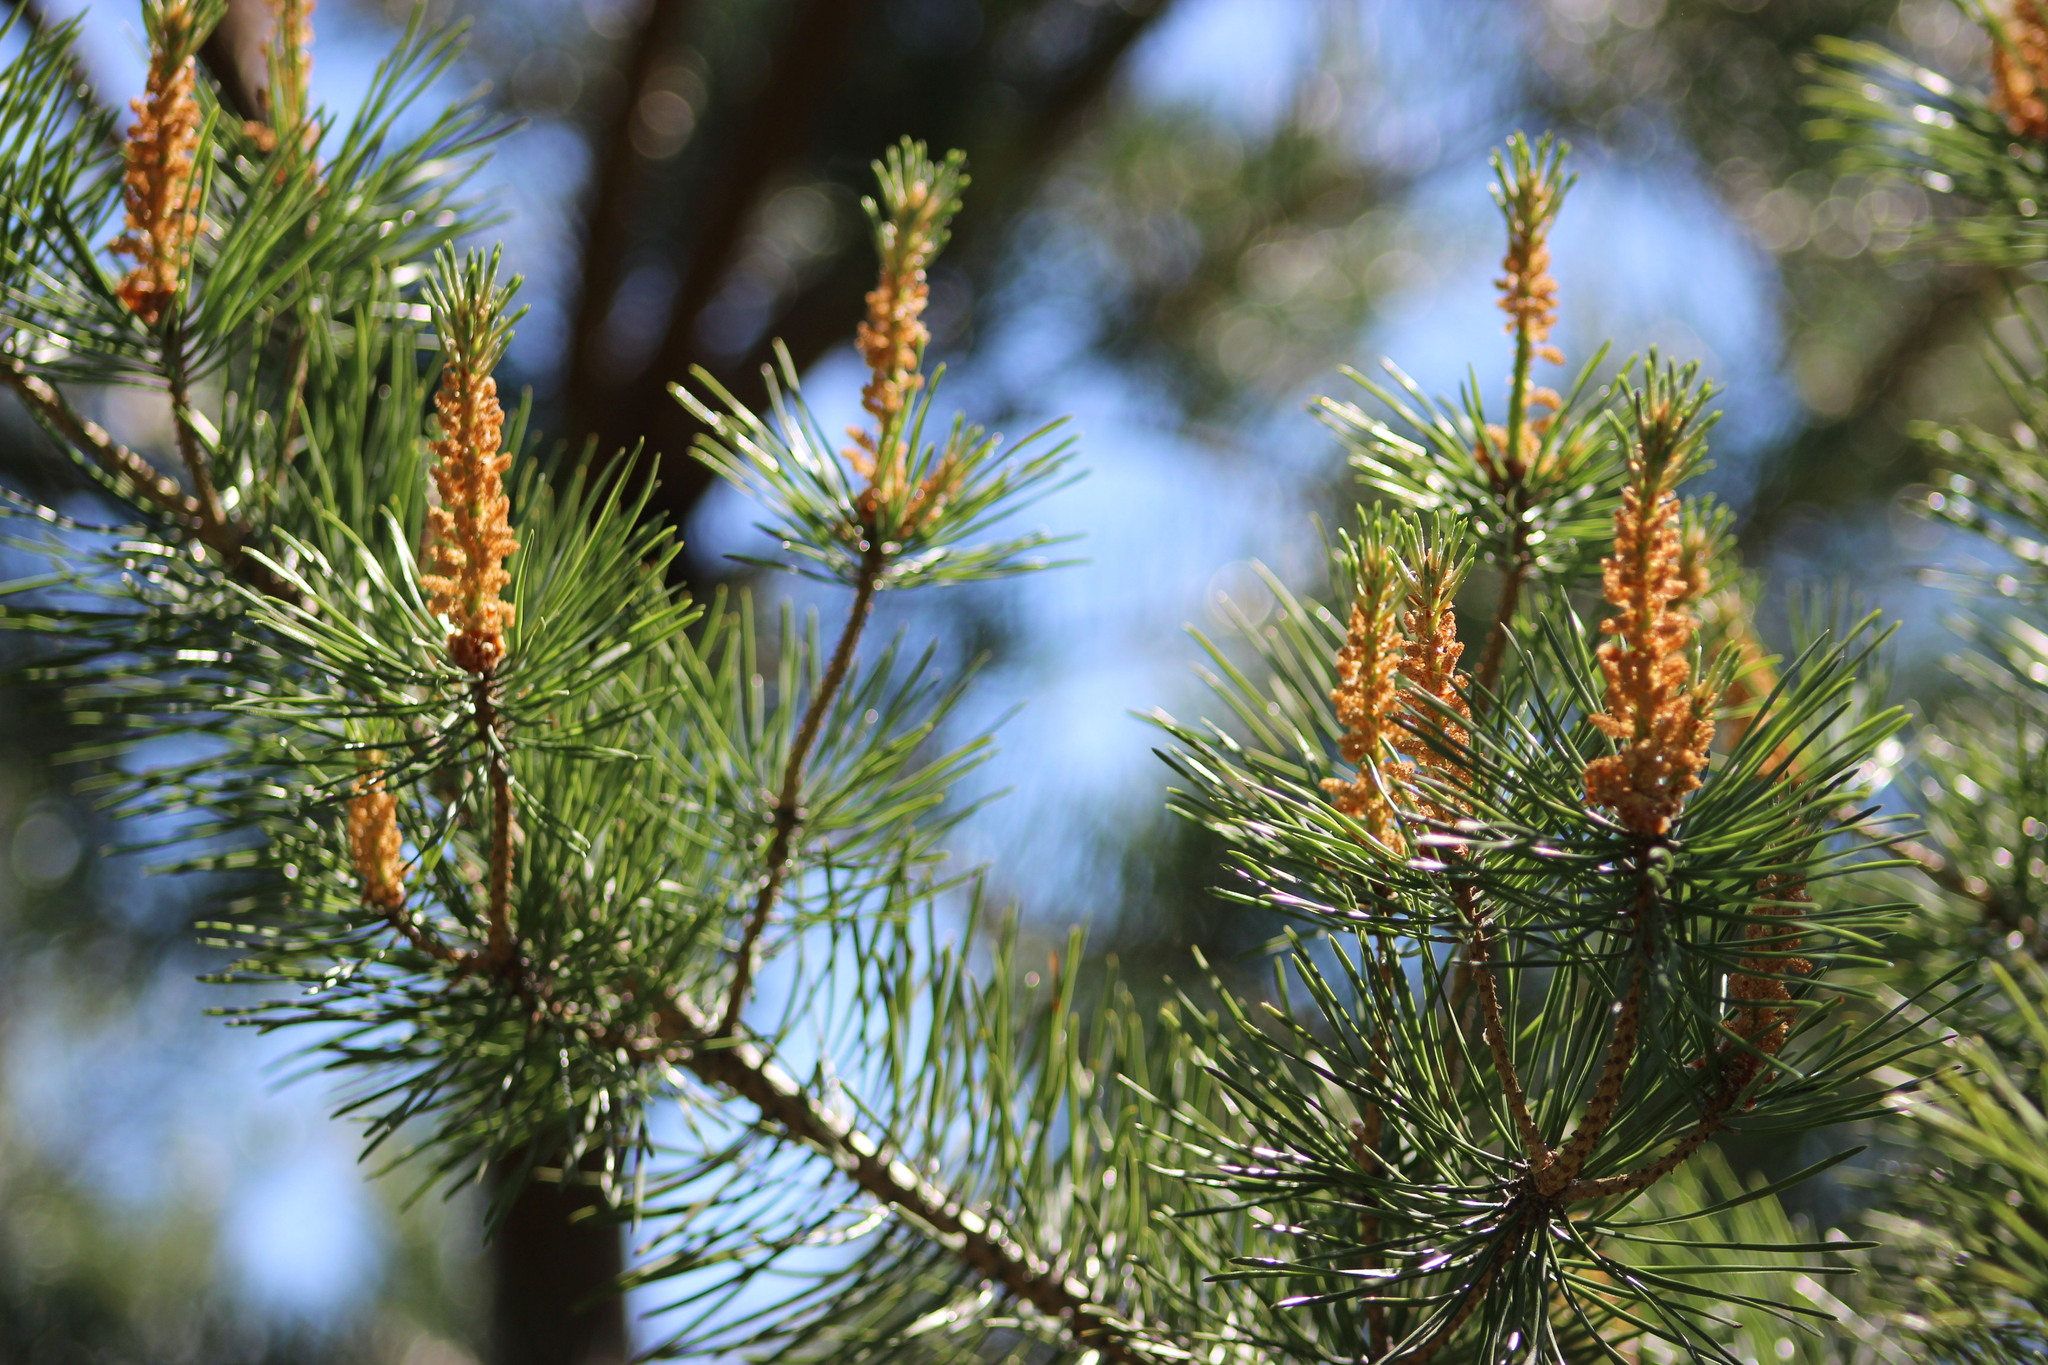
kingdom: Plantae
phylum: Tracheophyta
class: Pinopsida
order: Pinales
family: Pinaceae
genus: Pinus
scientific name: Pinus sylvestris
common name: Scots pine
